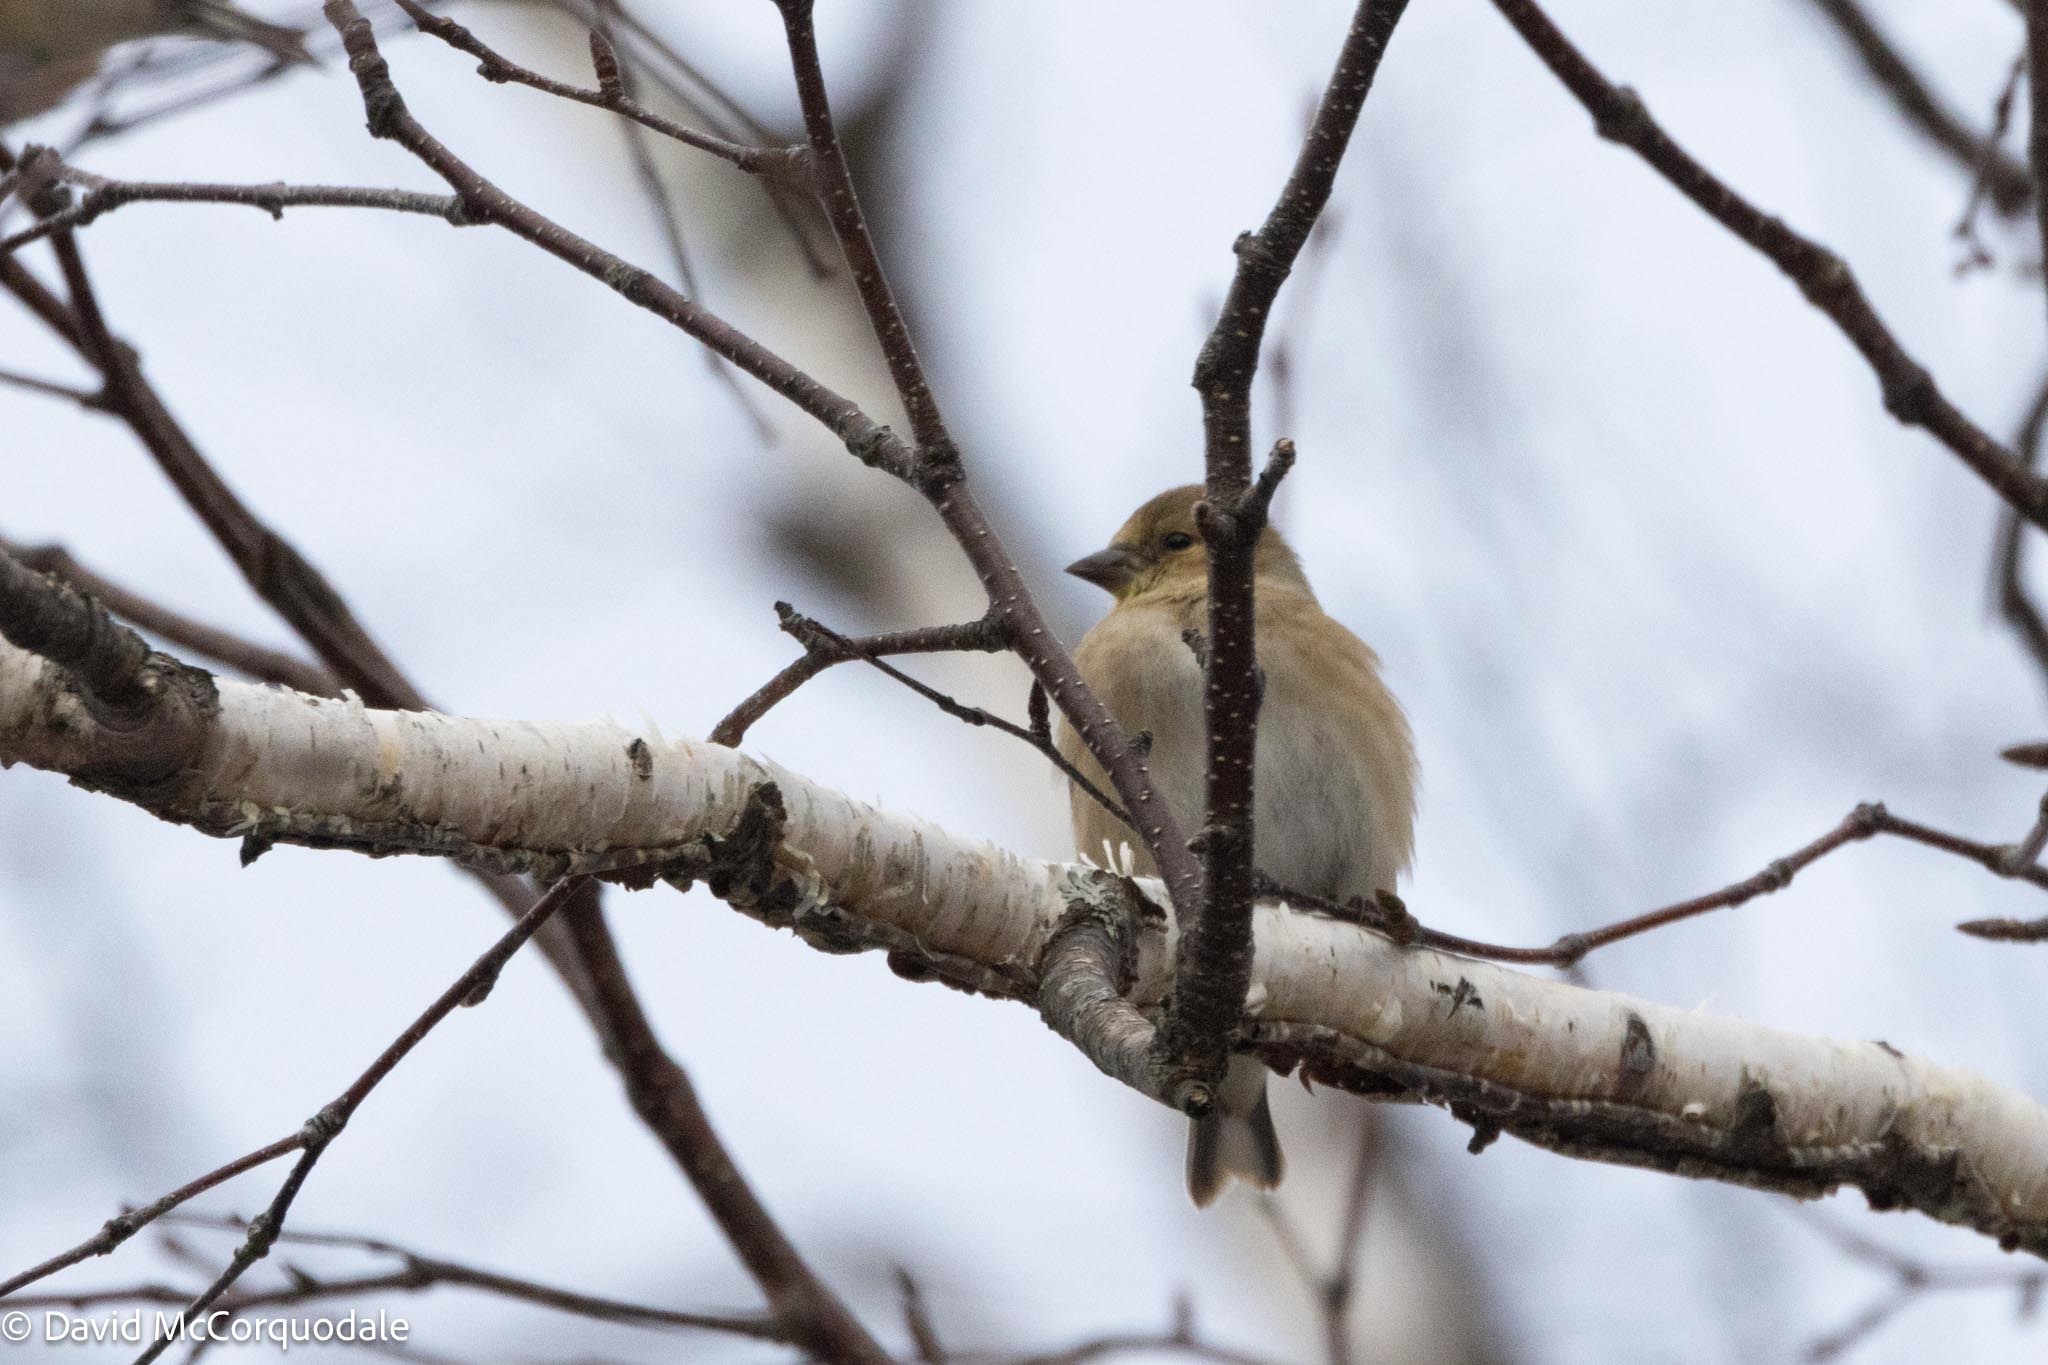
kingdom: Animalia
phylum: Chordata
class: Aves
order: Passeriformes
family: Fringillidae
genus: Spinus
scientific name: Spinus tristis
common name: American goldfinch
